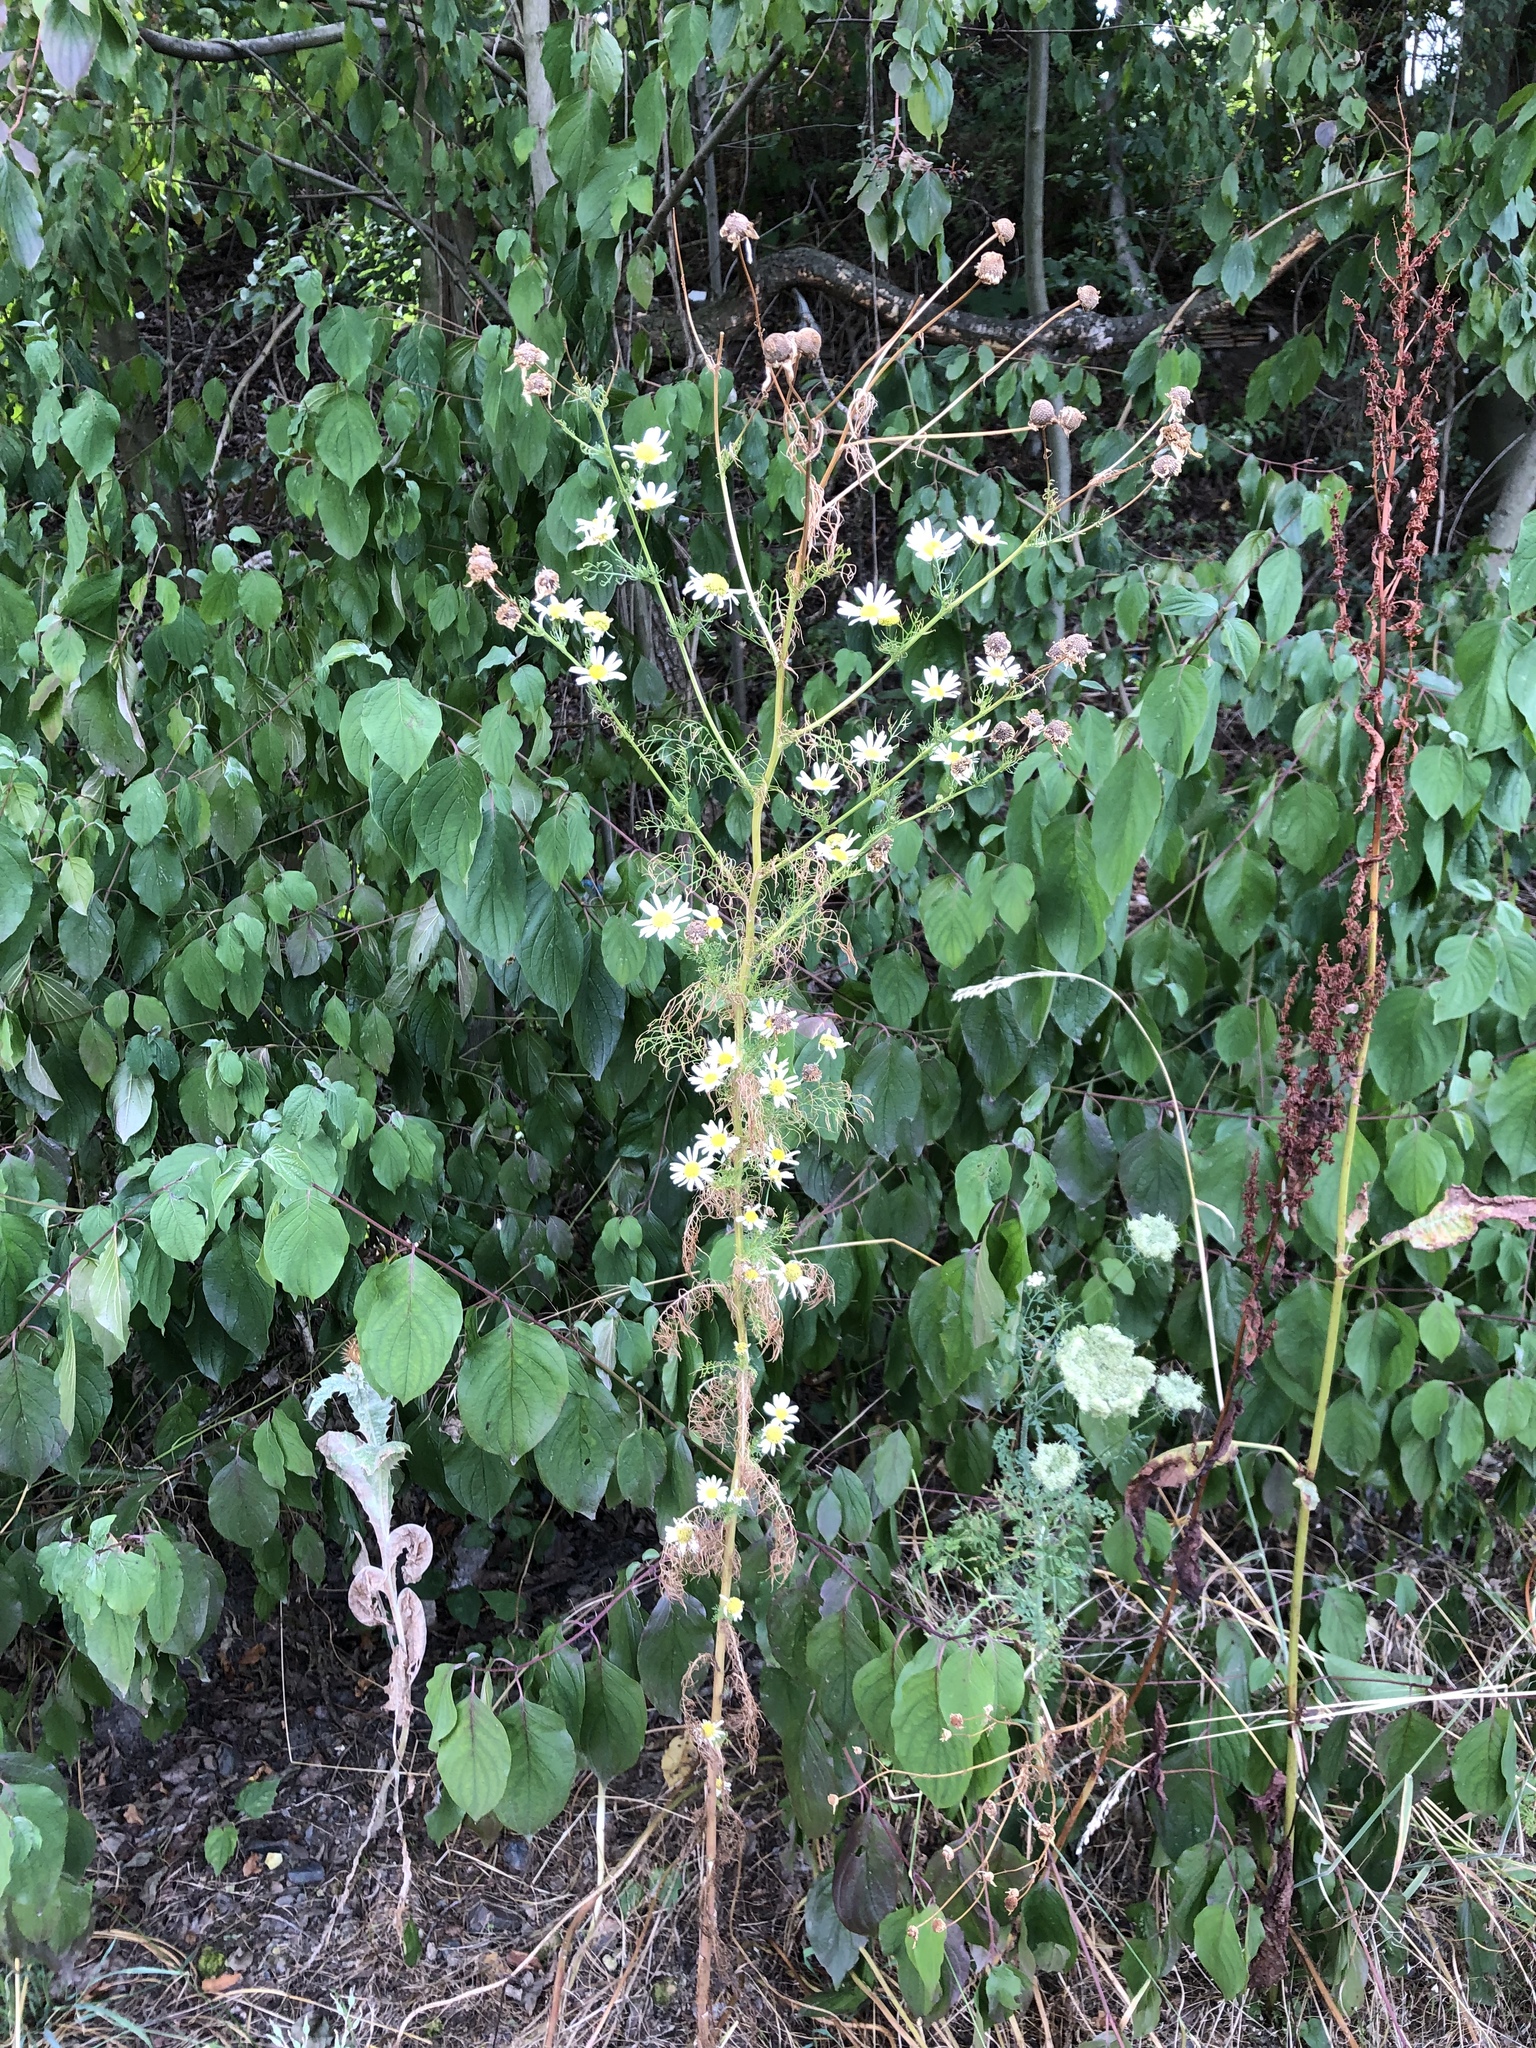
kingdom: Plantae
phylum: Tracheophyta
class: Magnoliopsida
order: Asterales
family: Asteraceae
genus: Tripleurospermum
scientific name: Tripleurospermum inodorum
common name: Scentless mayweed
